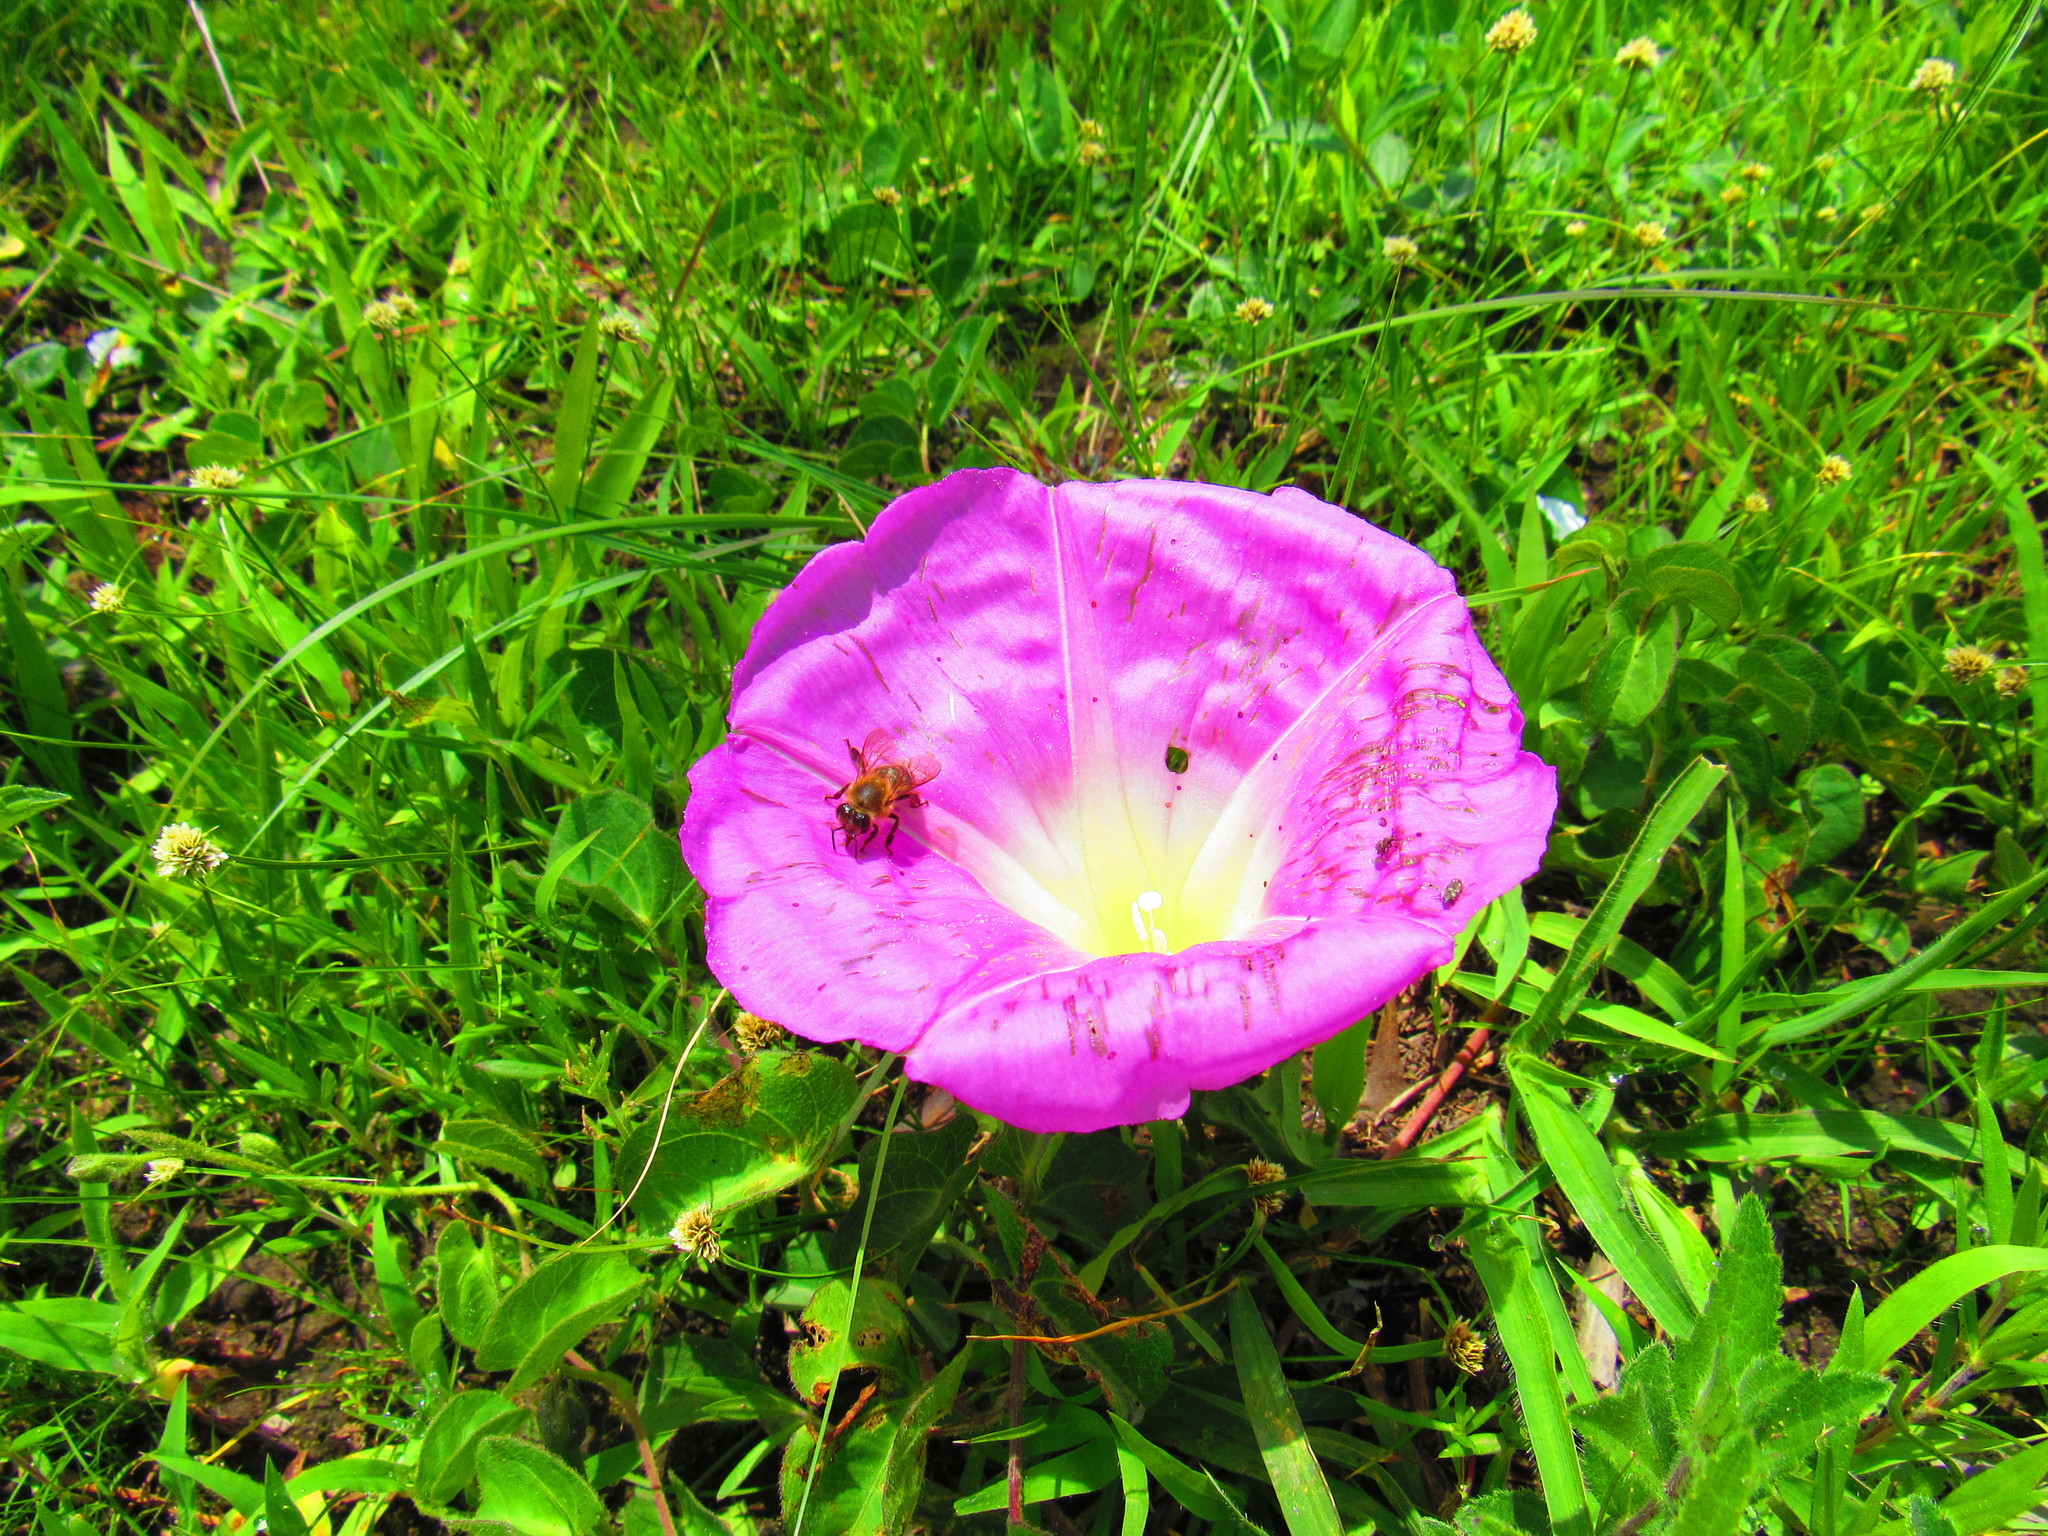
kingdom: Animalia
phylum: Arthropoda
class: Insecta
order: Hymenoptera
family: Apidae
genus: Apis
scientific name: Apis mellifera
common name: Honey bee
